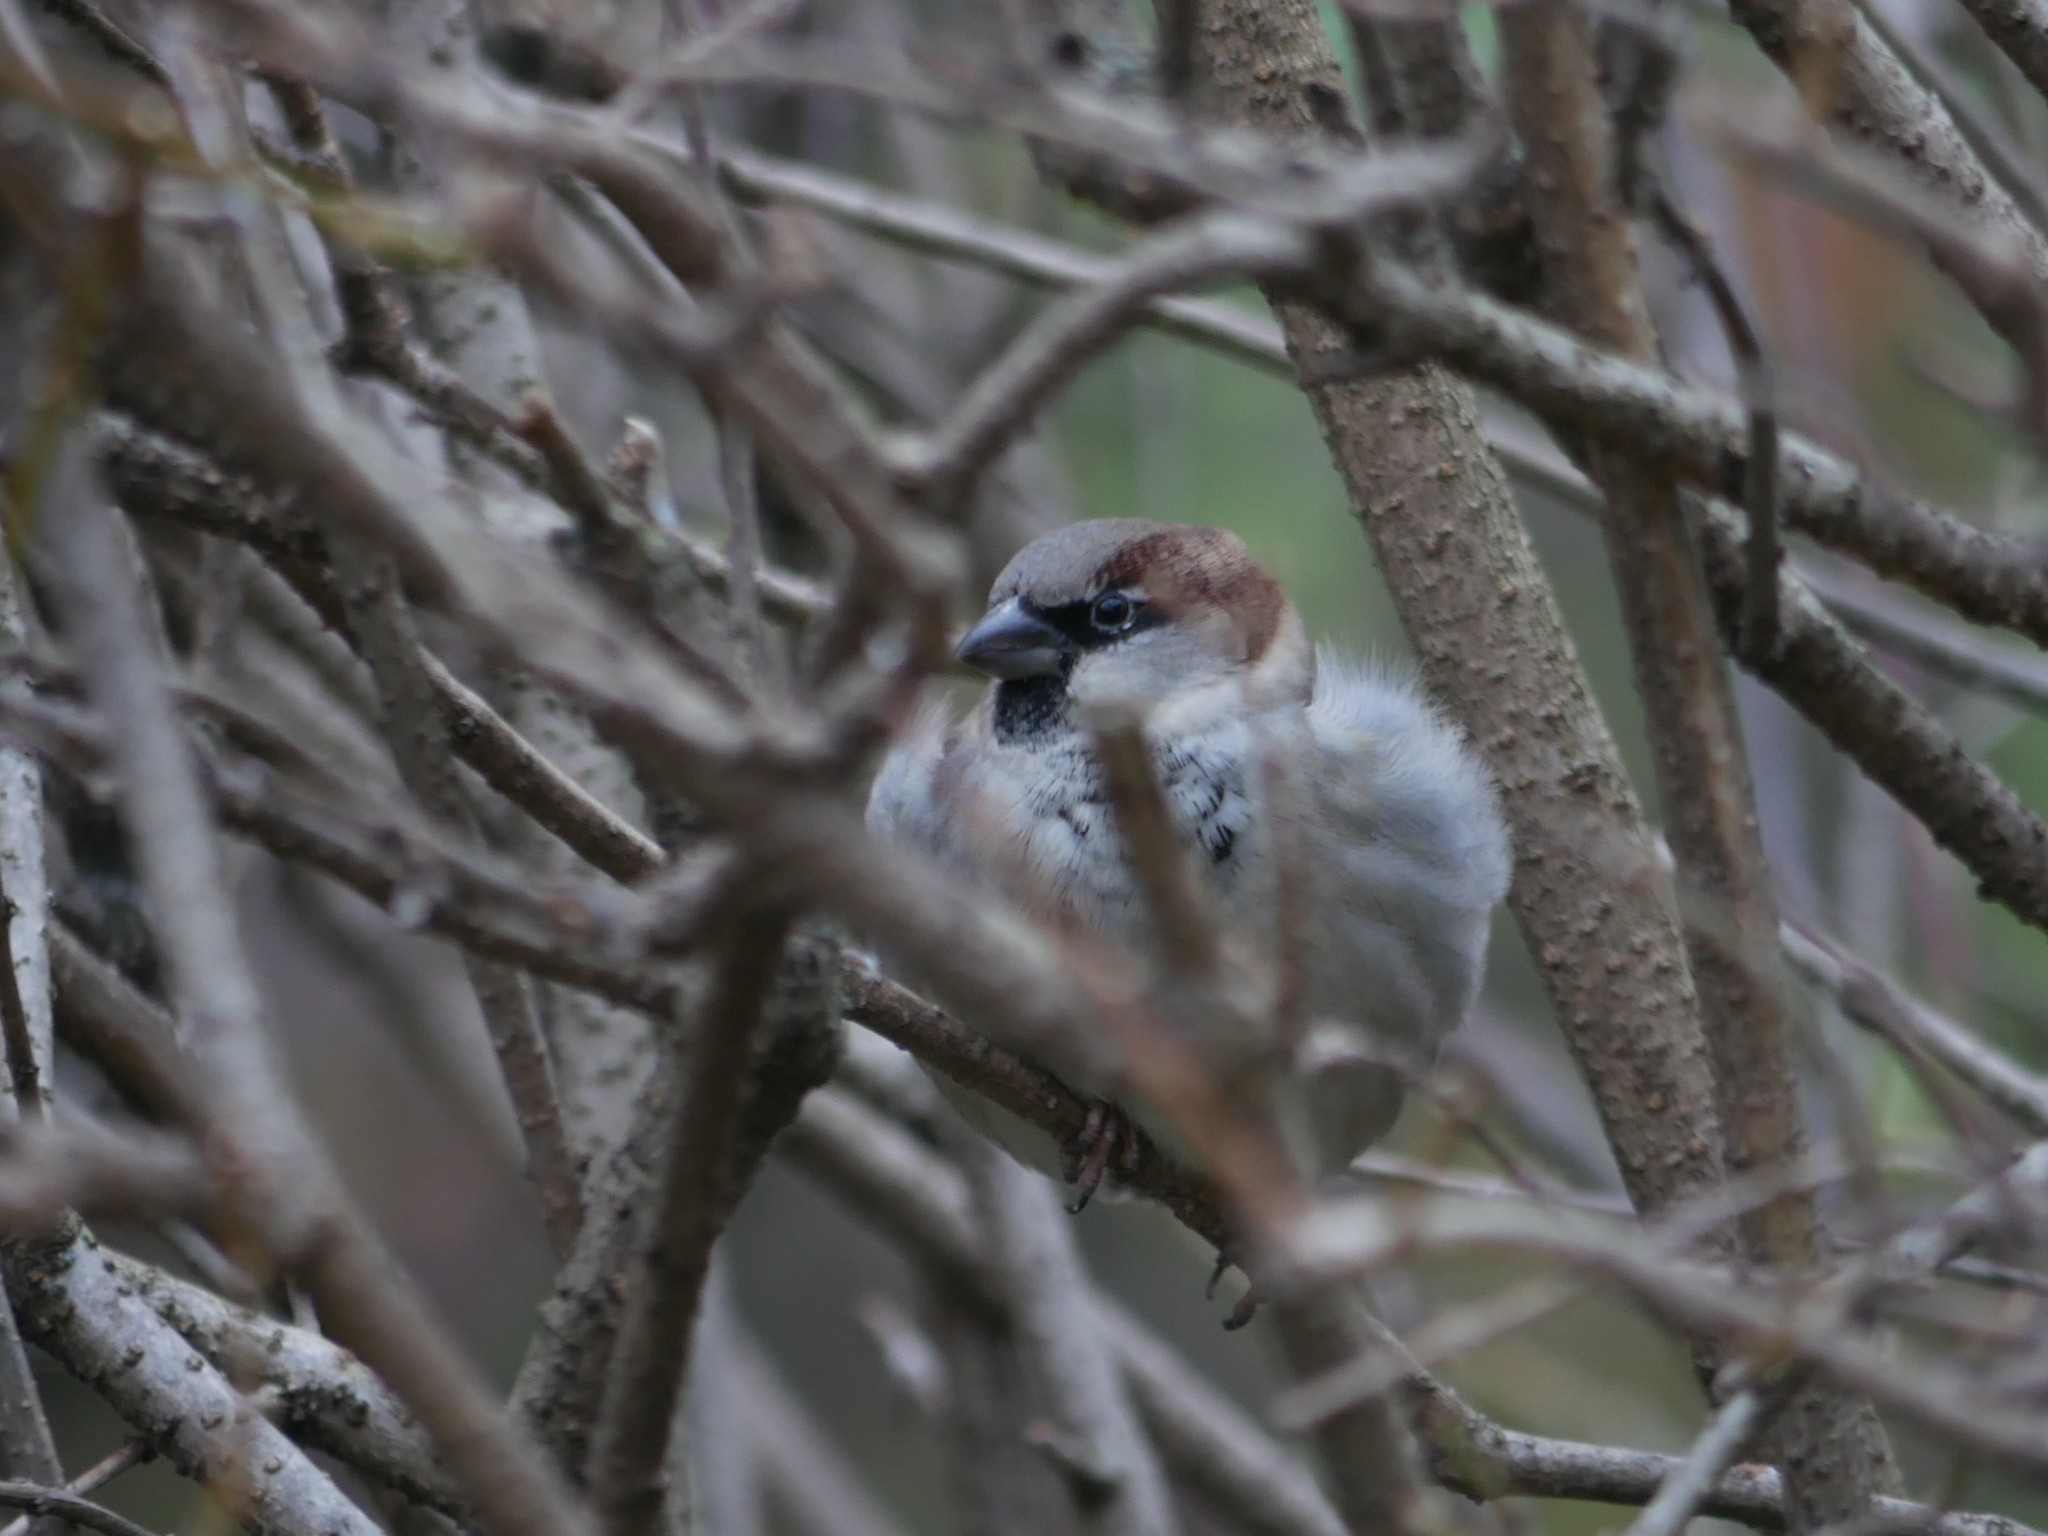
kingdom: Animalia
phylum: Chordata
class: Aves
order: Passeriformes
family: Passeridae
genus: Passer
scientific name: Passer domesticus
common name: House sparrow
